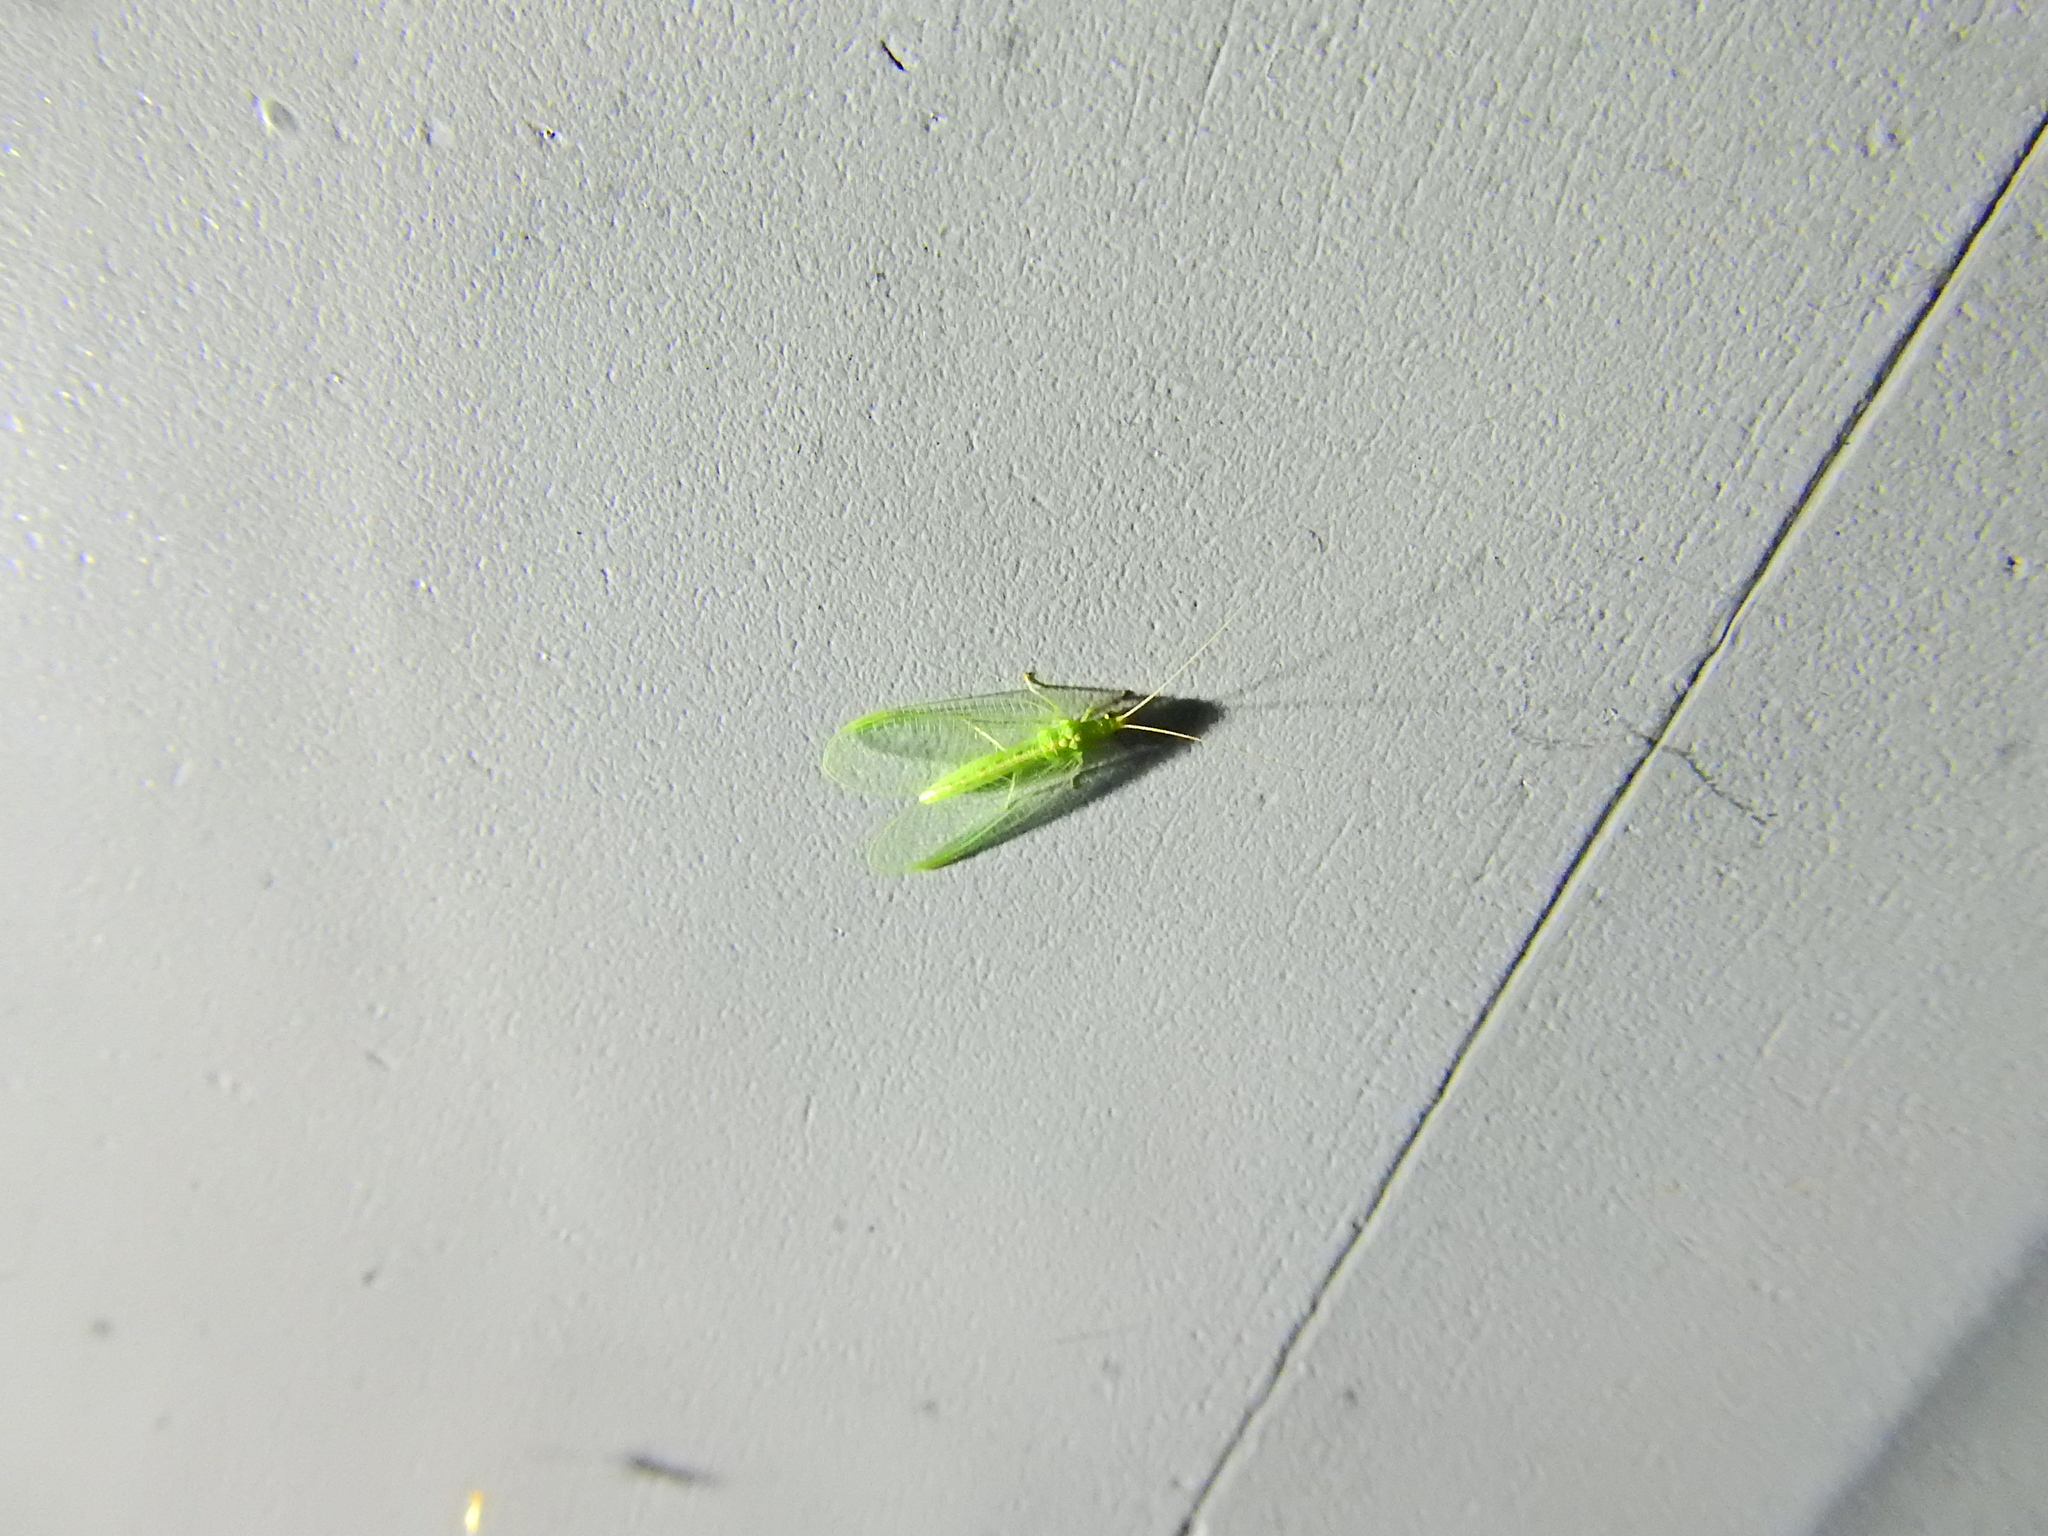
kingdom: Animalia
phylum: Arthropoda
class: Insecta
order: Neuroptera
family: Chrysopidae
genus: Chrysoperla
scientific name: Chrysoperla
